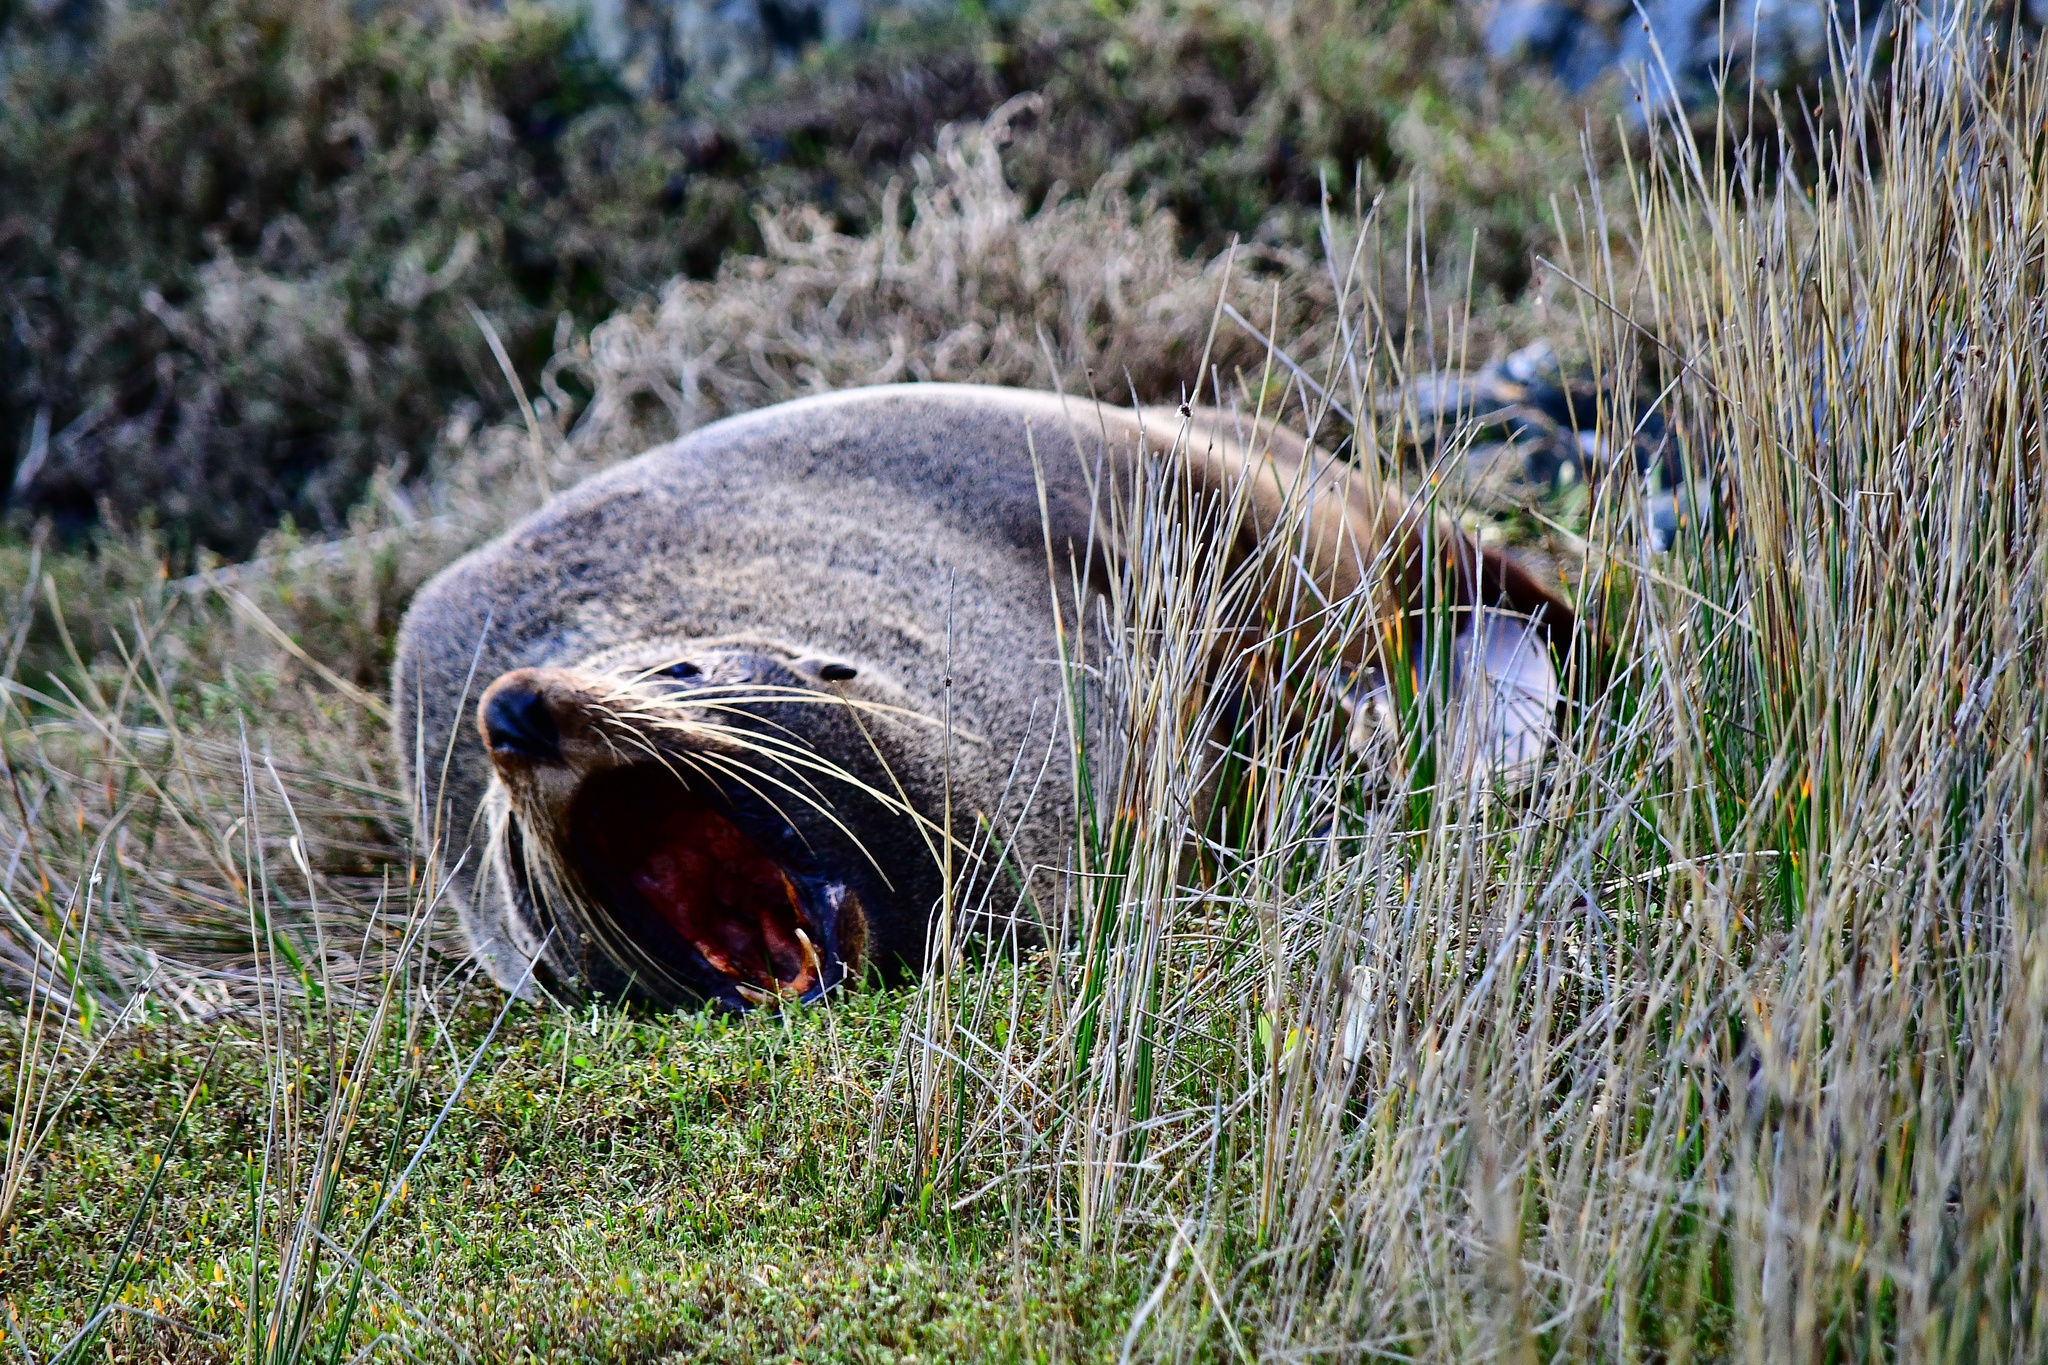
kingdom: Animalia
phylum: Chordata
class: Mammalia
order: Carnivora
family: Otariidae
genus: Arctocephalus
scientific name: Arctocephalus forsteri
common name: New zealand fur seal
